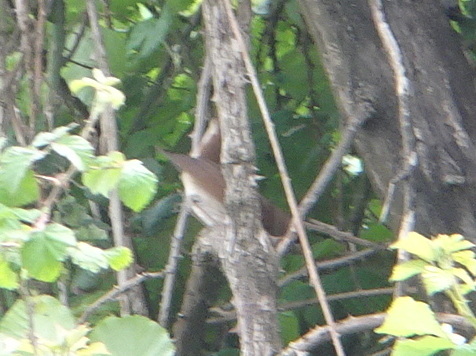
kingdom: Animalia
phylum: Chordata
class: Aves
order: Passeriformes
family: Muscicapidae
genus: Luscinia
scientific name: Luscinia megarhynchos
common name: Common nightingale
